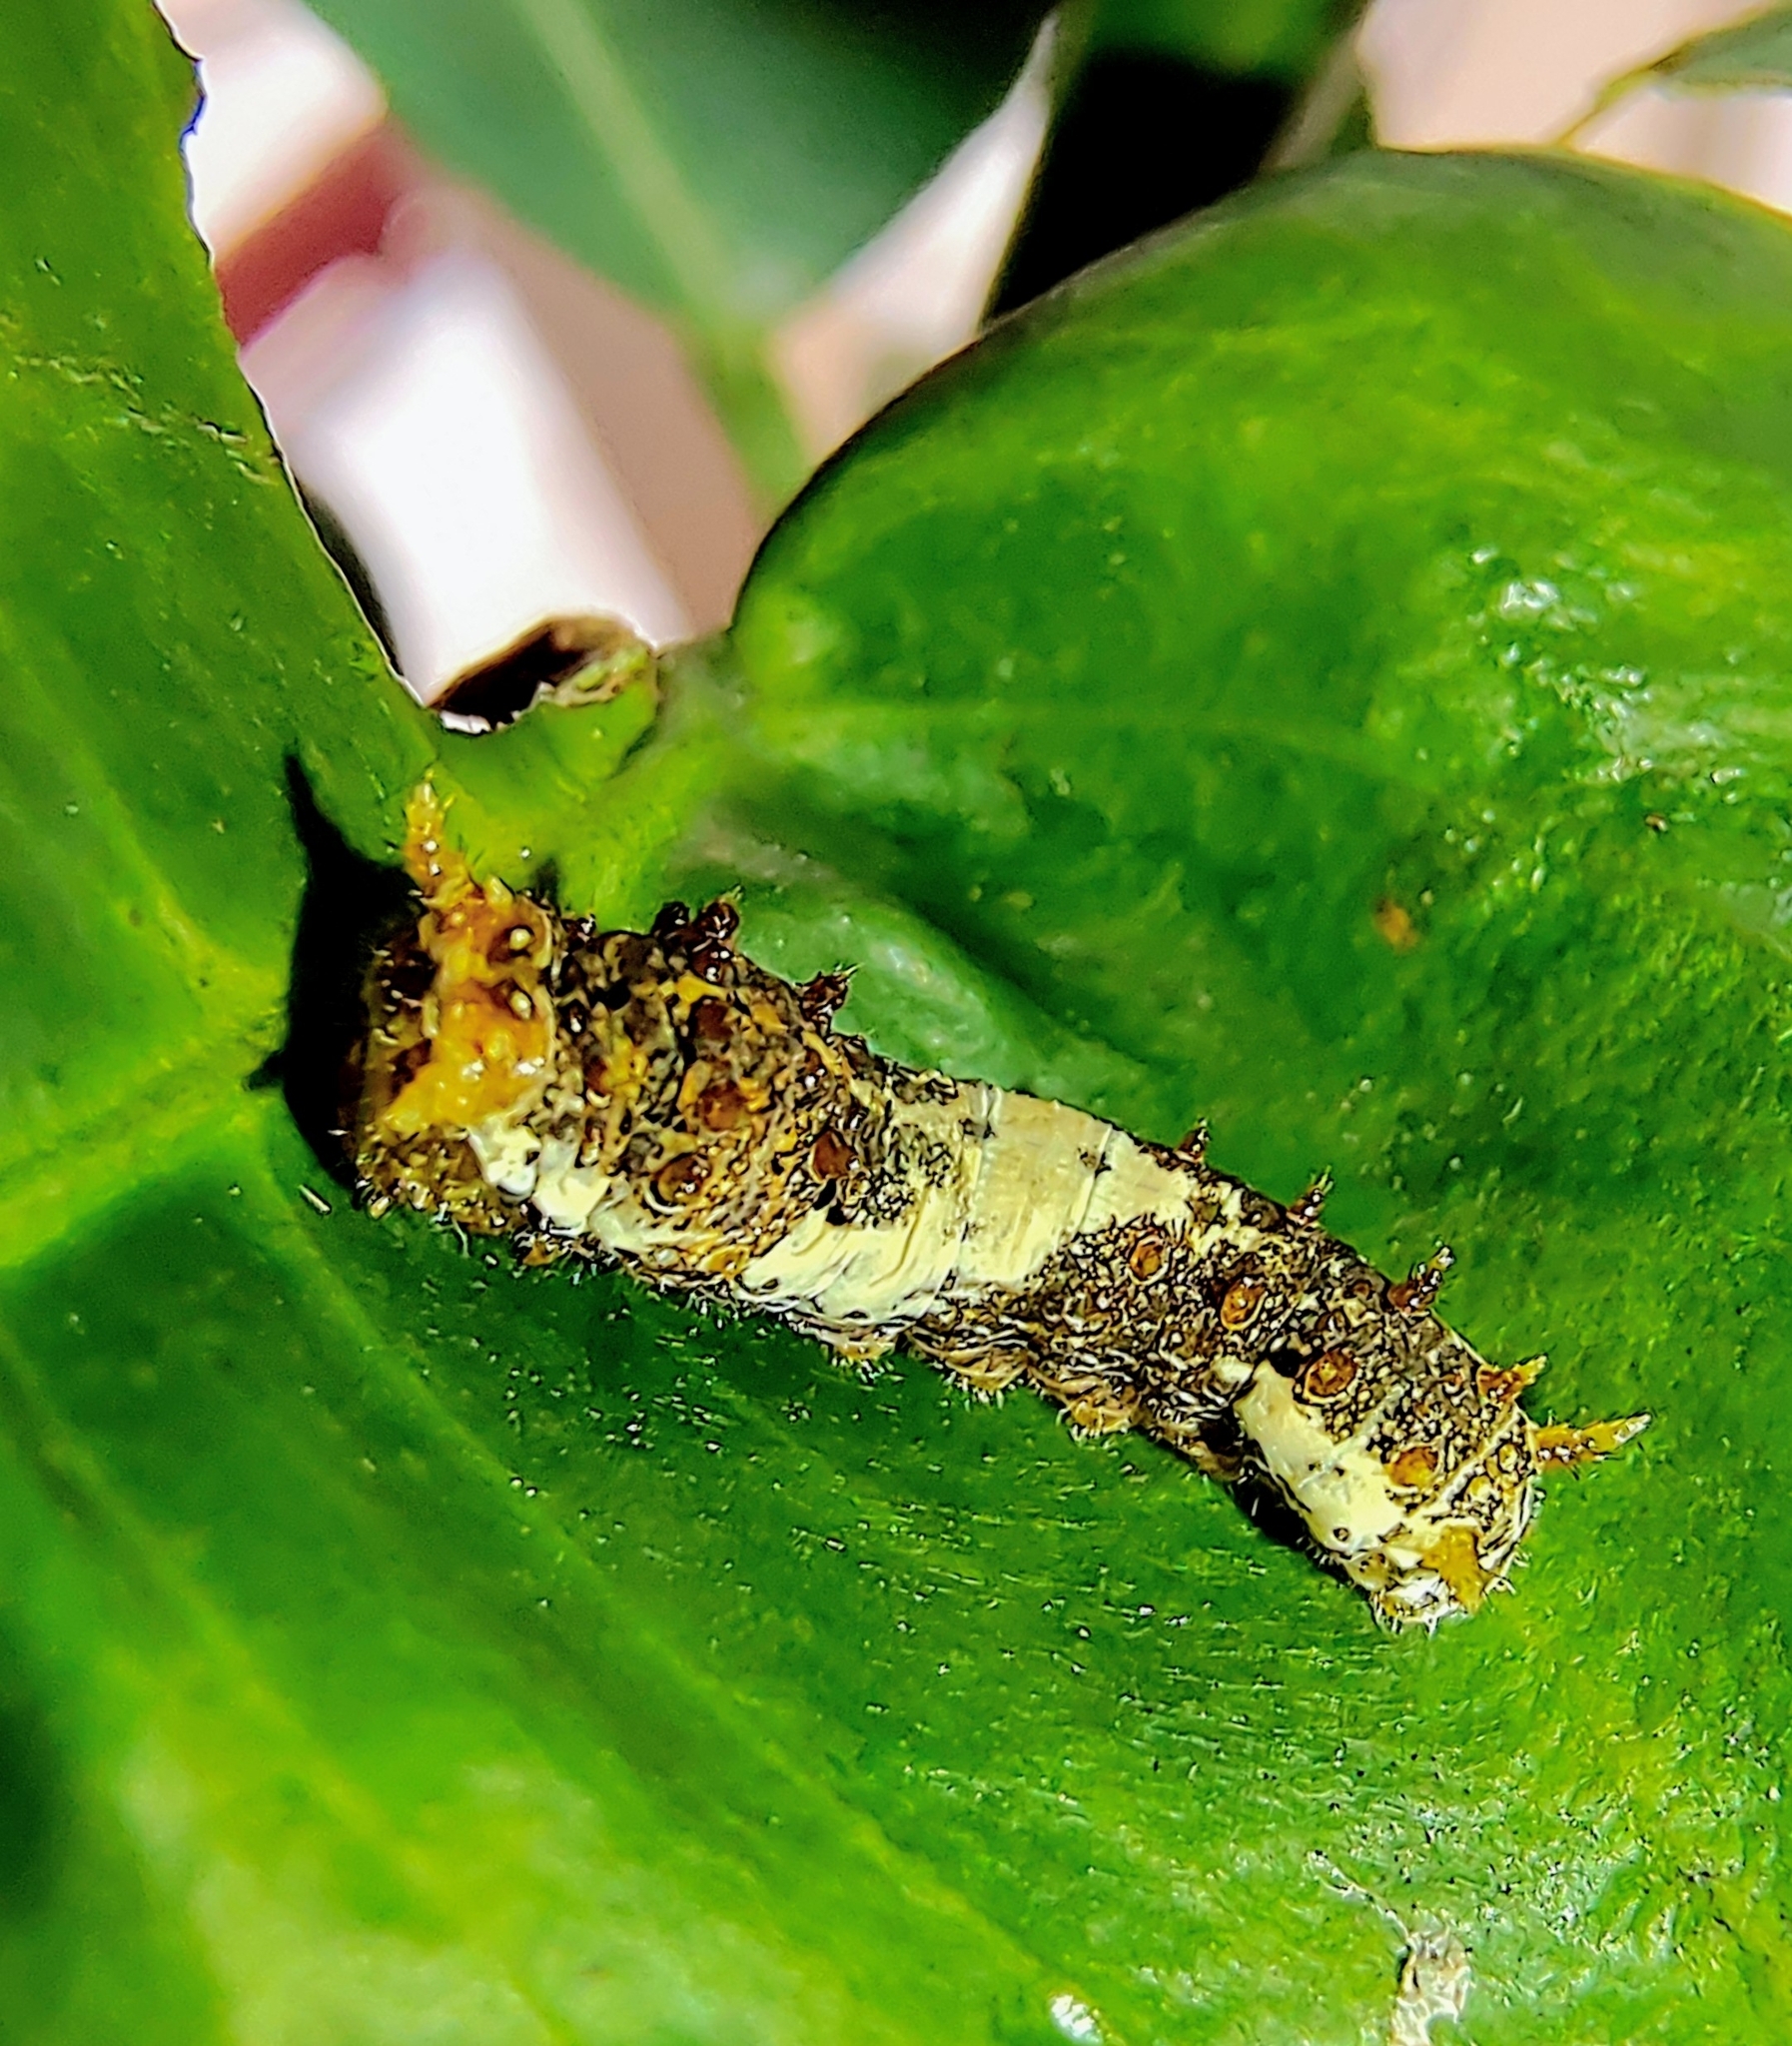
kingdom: Animalia
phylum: Arthropoda
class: Insecta
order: Lepidoptera
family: Papilionidae
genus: Papilio
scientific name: Papilio demoleus
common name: Lime butterfly
